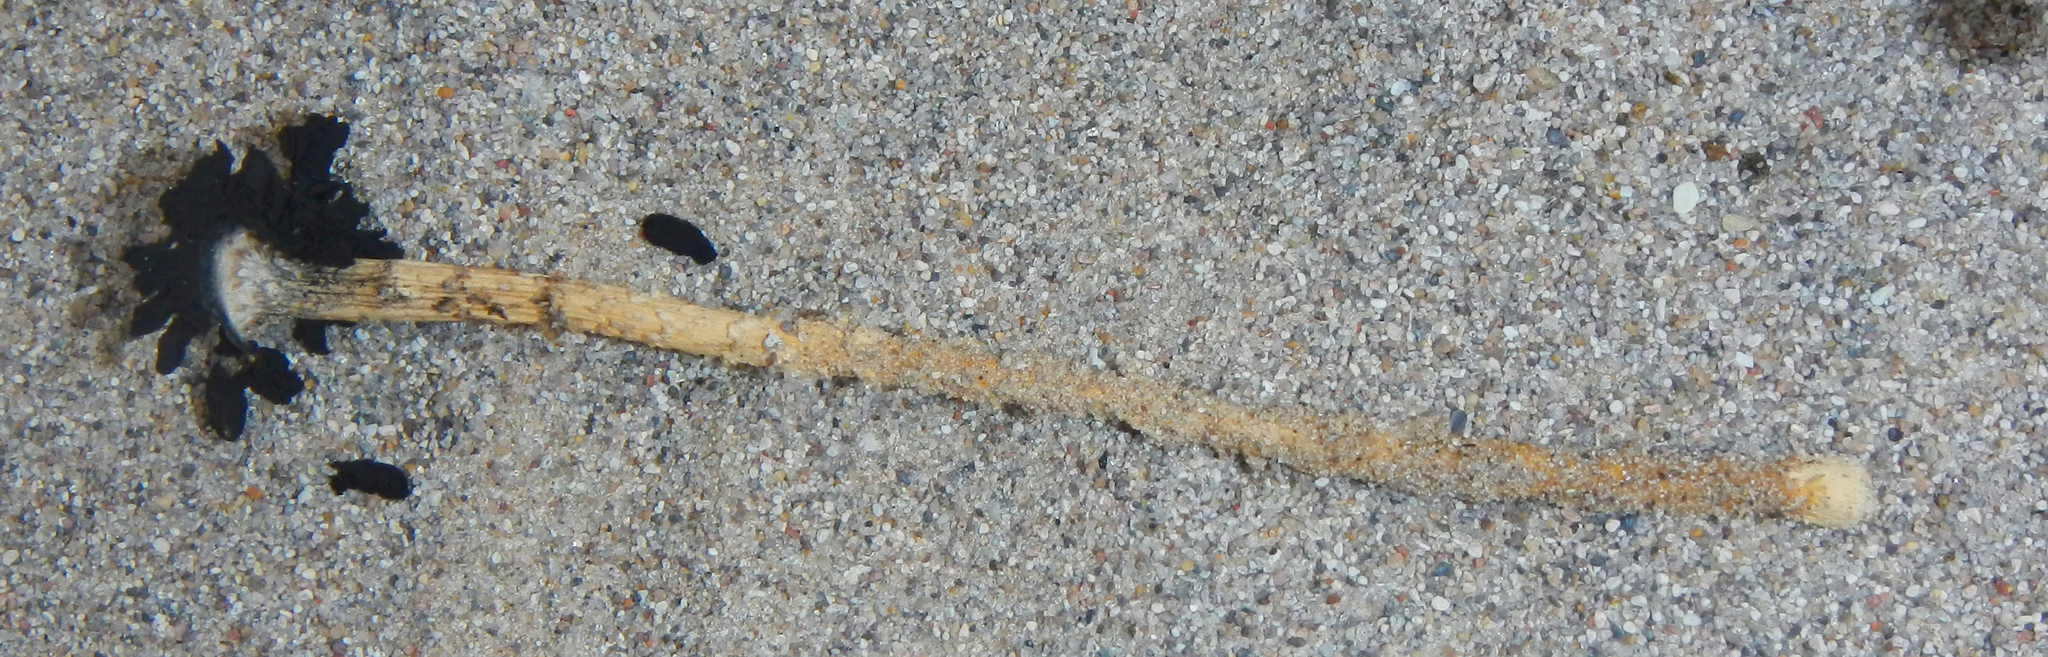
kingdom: Fungi
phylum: Basidiomycota
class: Agaricomycetes
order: Agaricales
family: Agaricaceae
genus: Montagnea
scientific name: Montagnea arenaria
